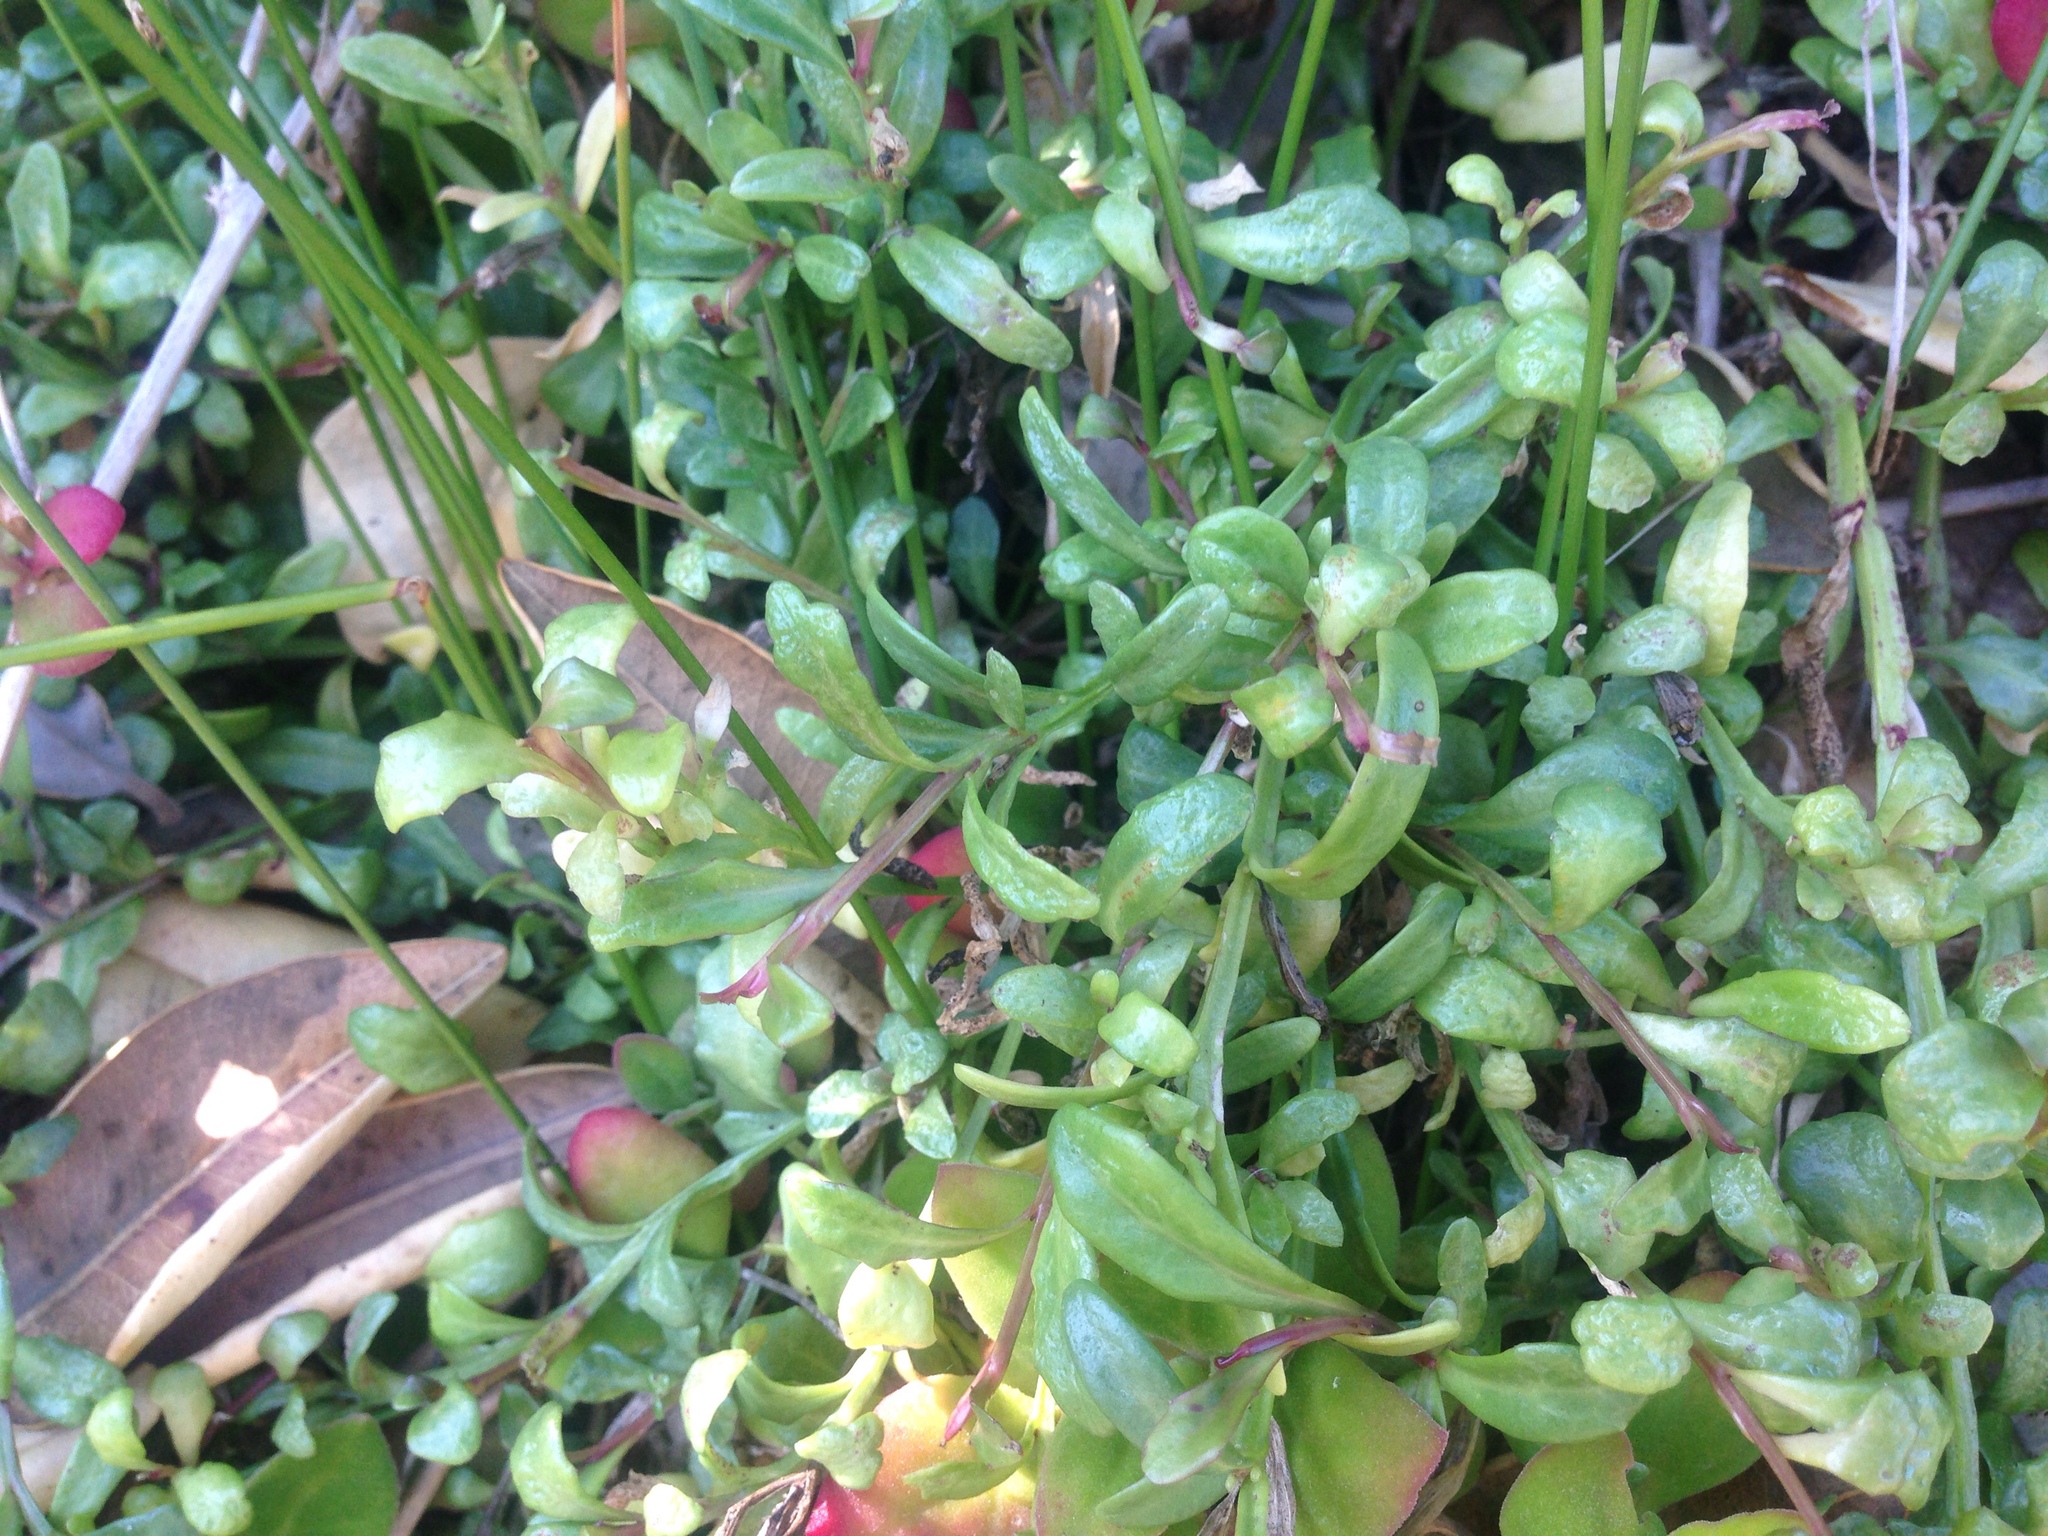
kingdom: Plantae
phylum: Tracheophyta
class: Magnoliopsida
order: Asterales
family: Campanulaceae
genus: Lobelia
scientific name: Lobelia anceps
